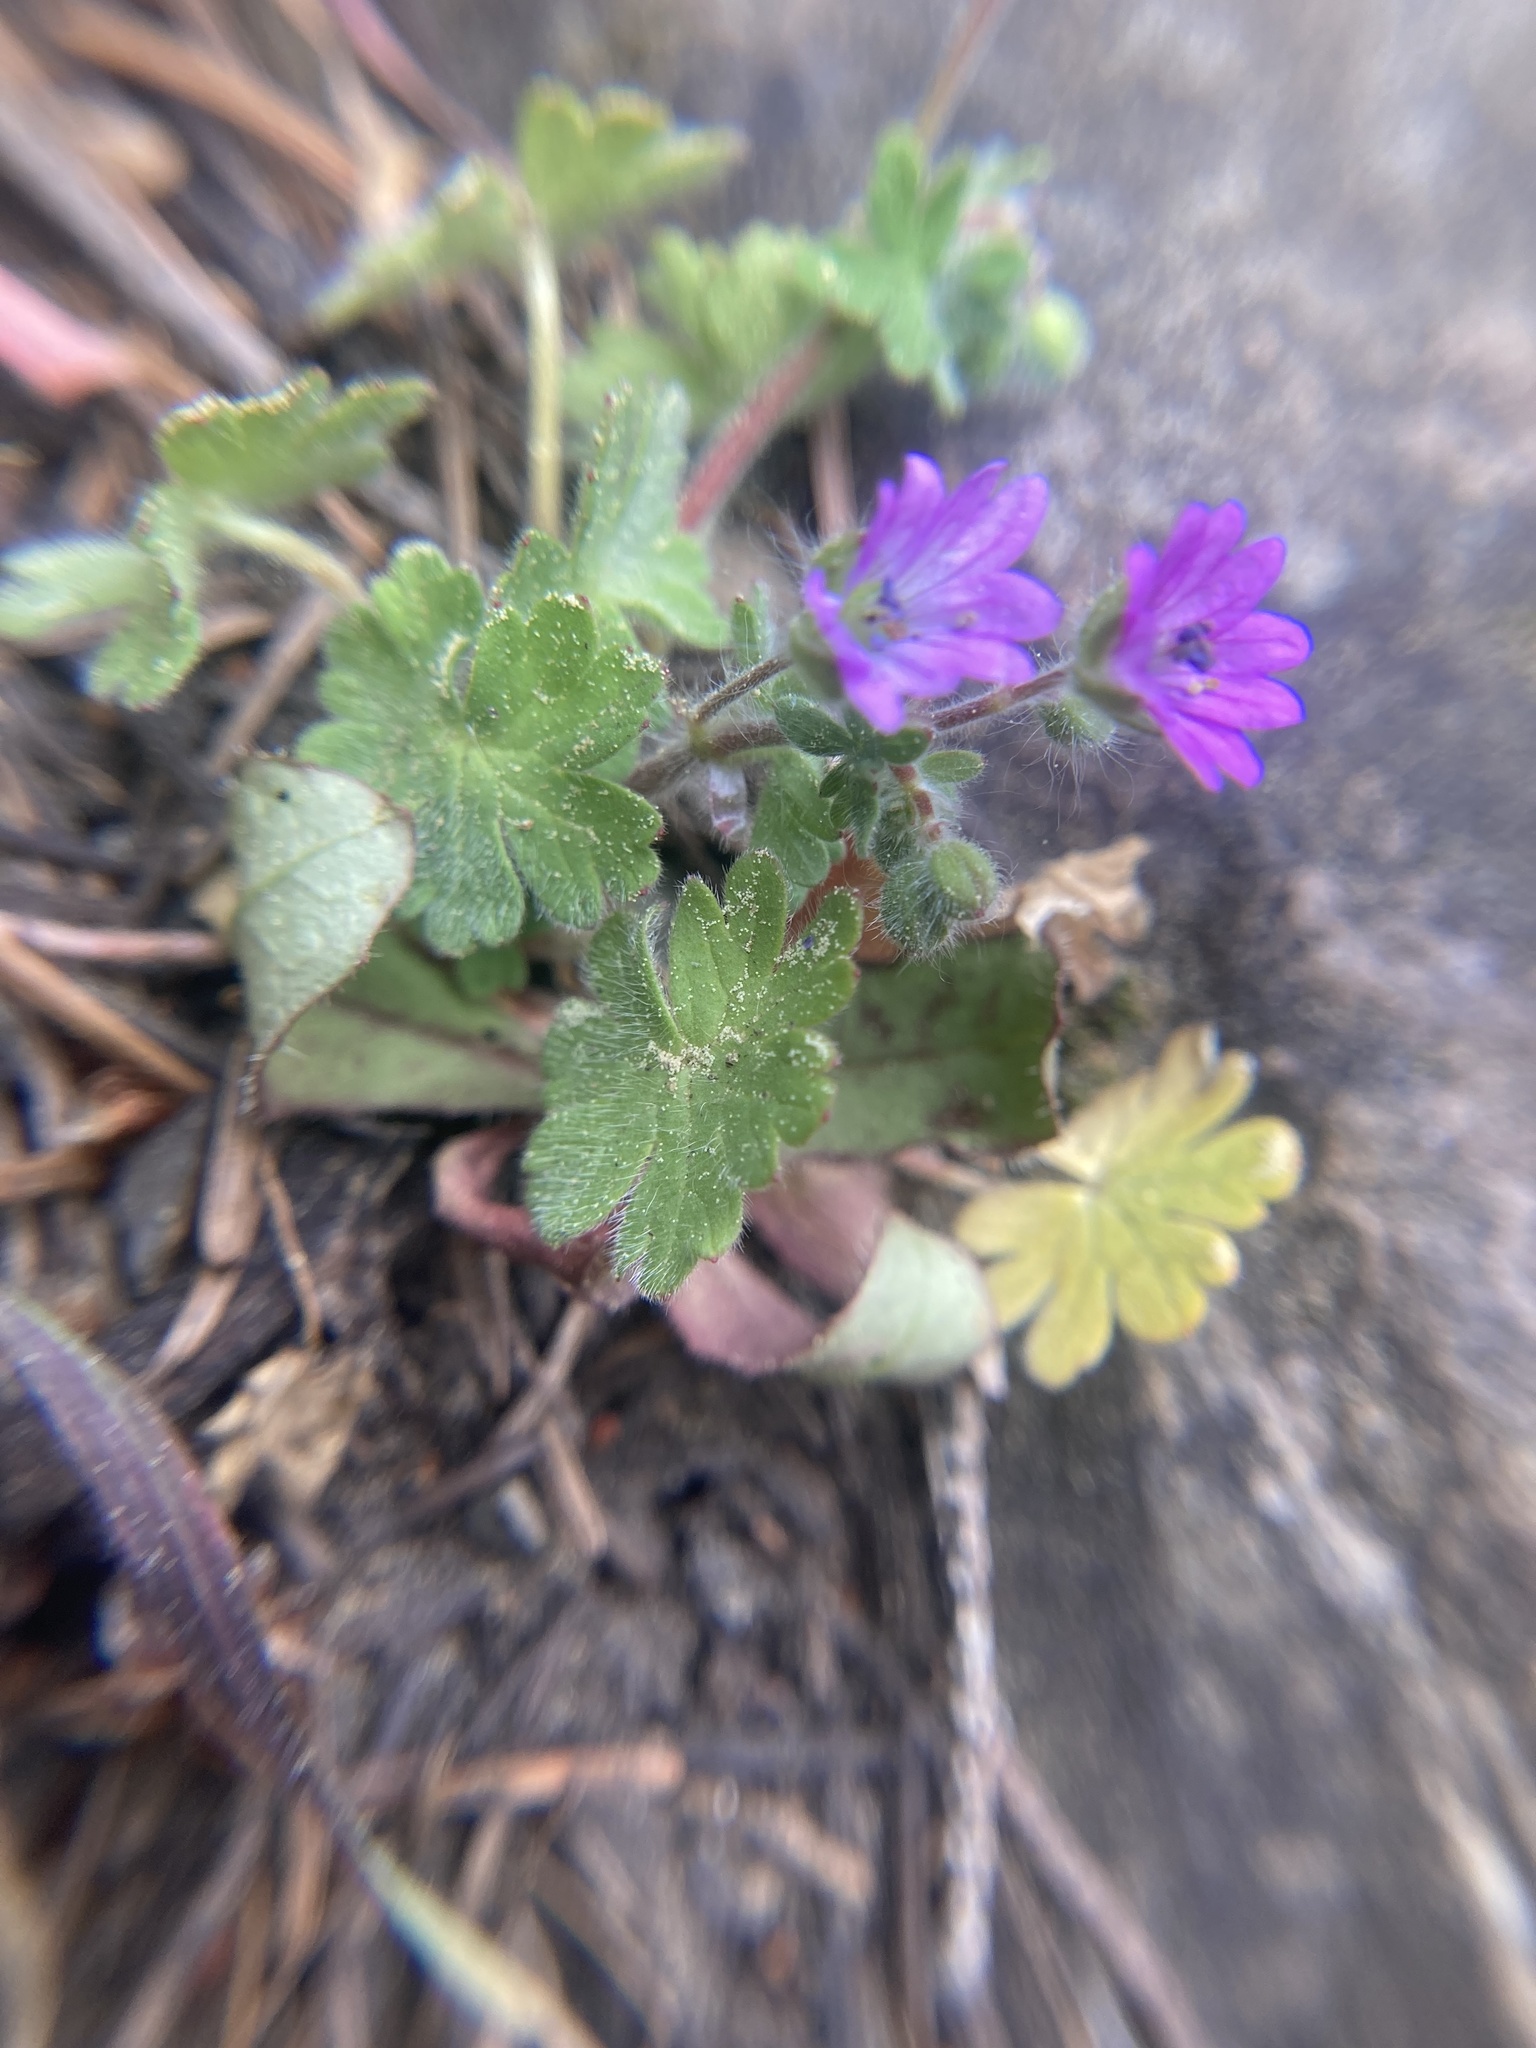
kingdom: Plantae
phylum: Tracheophyta
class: Magnoliopsida
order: Lamiales
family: Plantaginaceae
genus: Collinsia
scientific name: Collinsia parviflora
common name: Blue-lips
